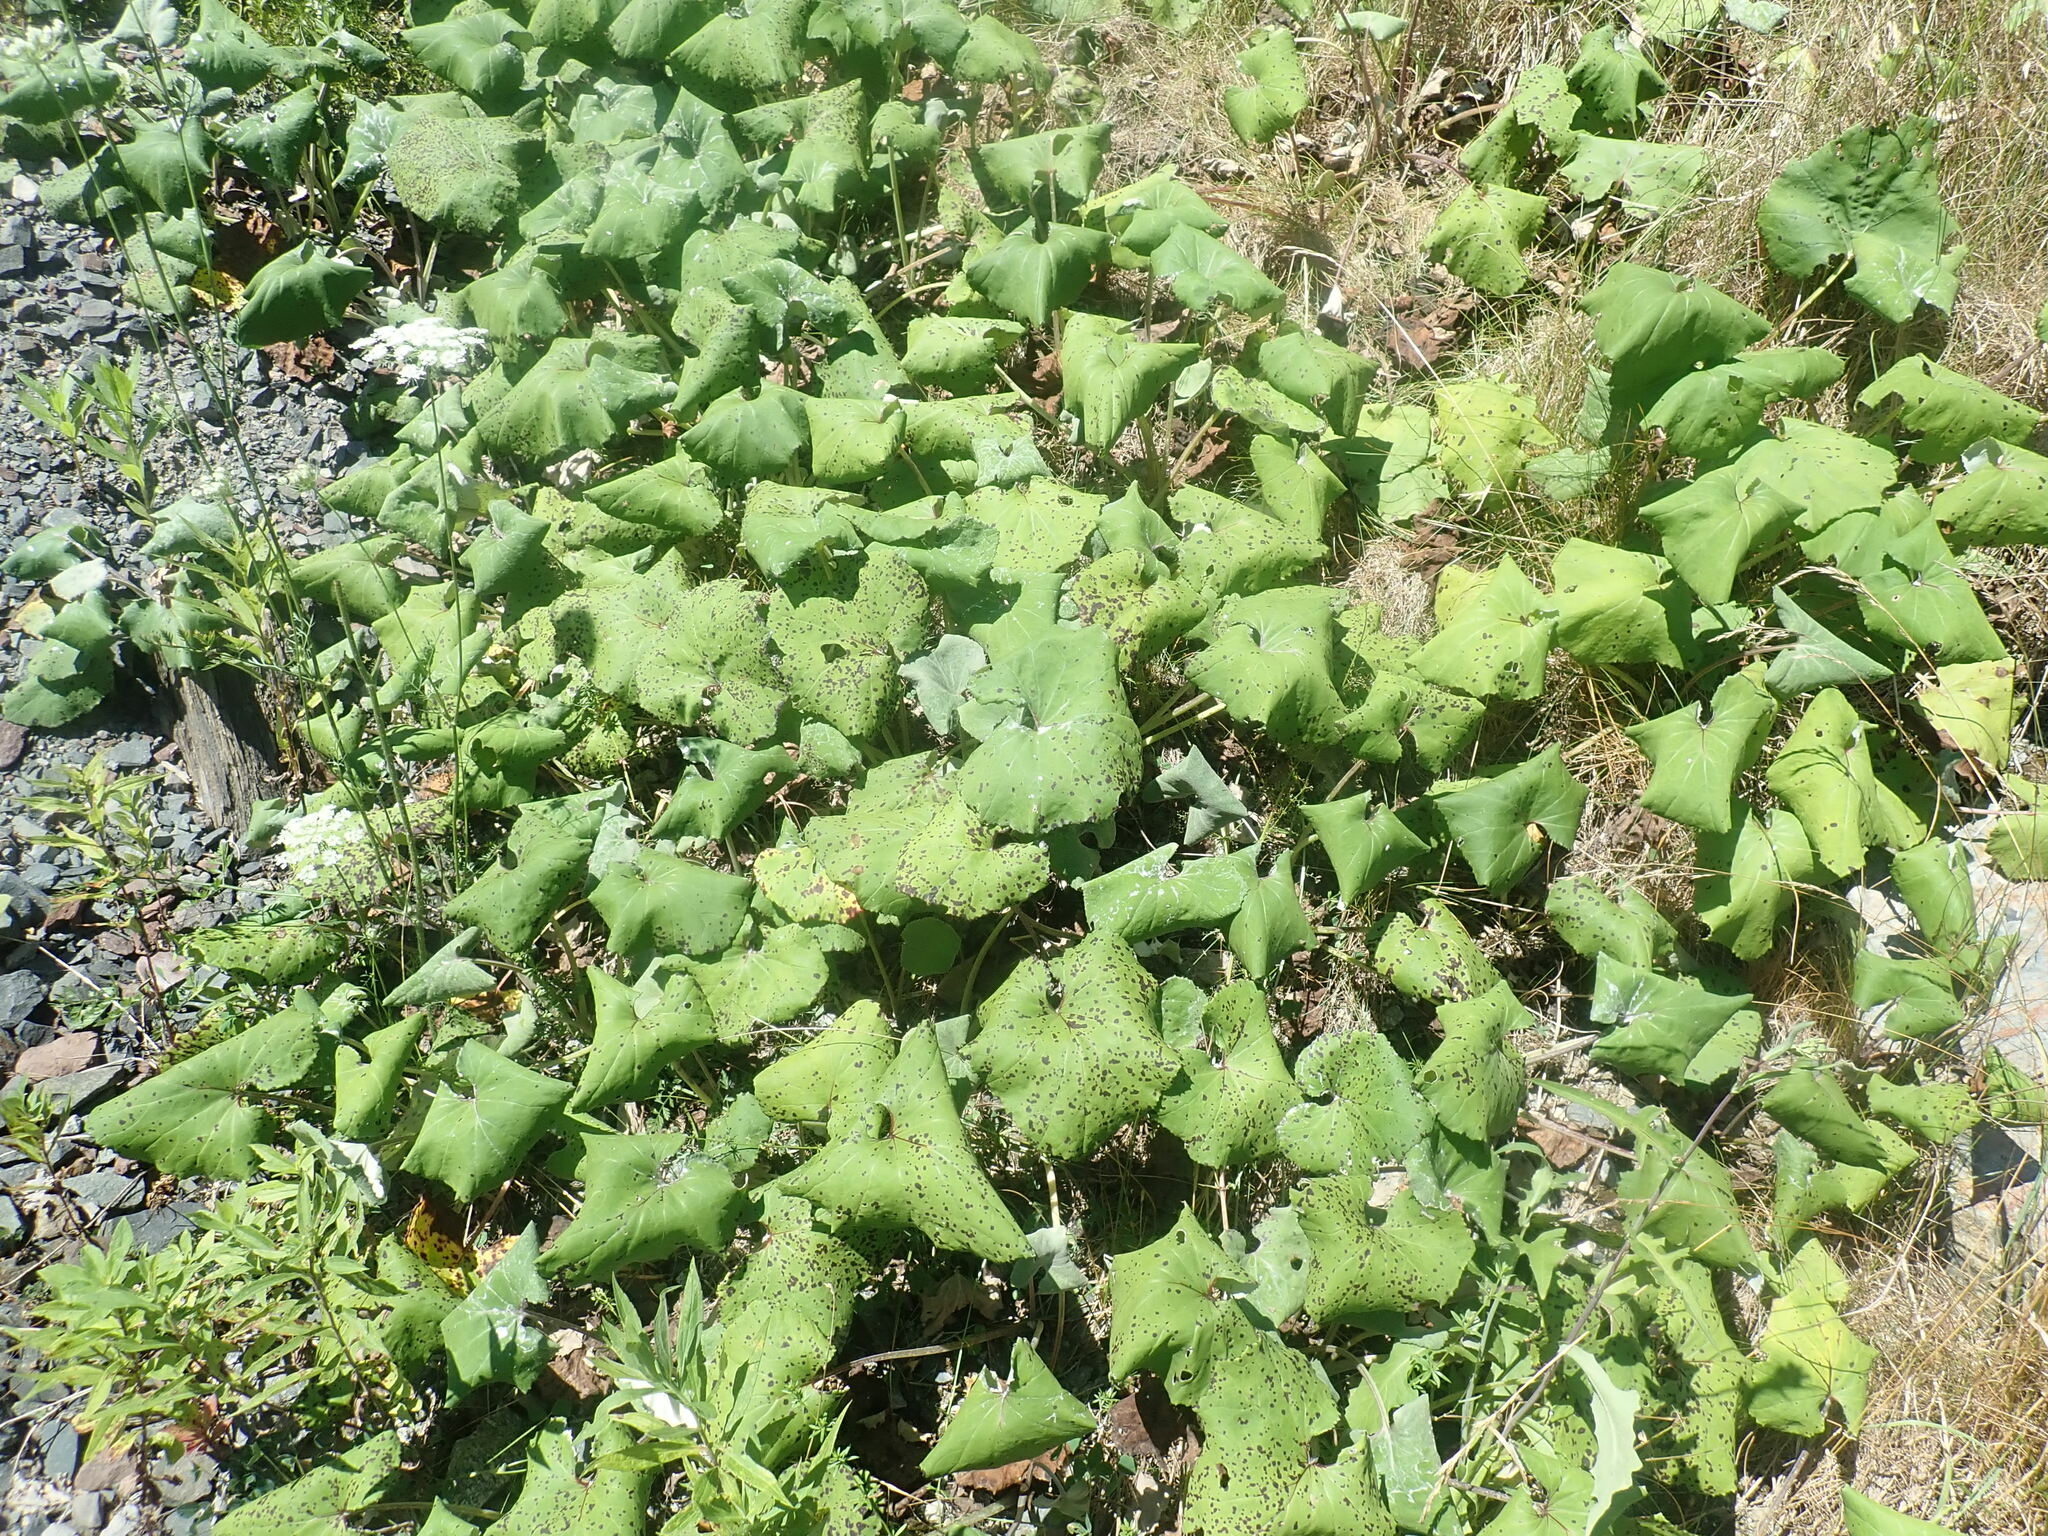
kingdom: Plantae
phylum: Tracheophyta
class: Magnoliopsida
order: Asterales
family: Asteraceae
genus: Tussilago
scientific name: Tussilago farfara
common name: Coltsfoot
